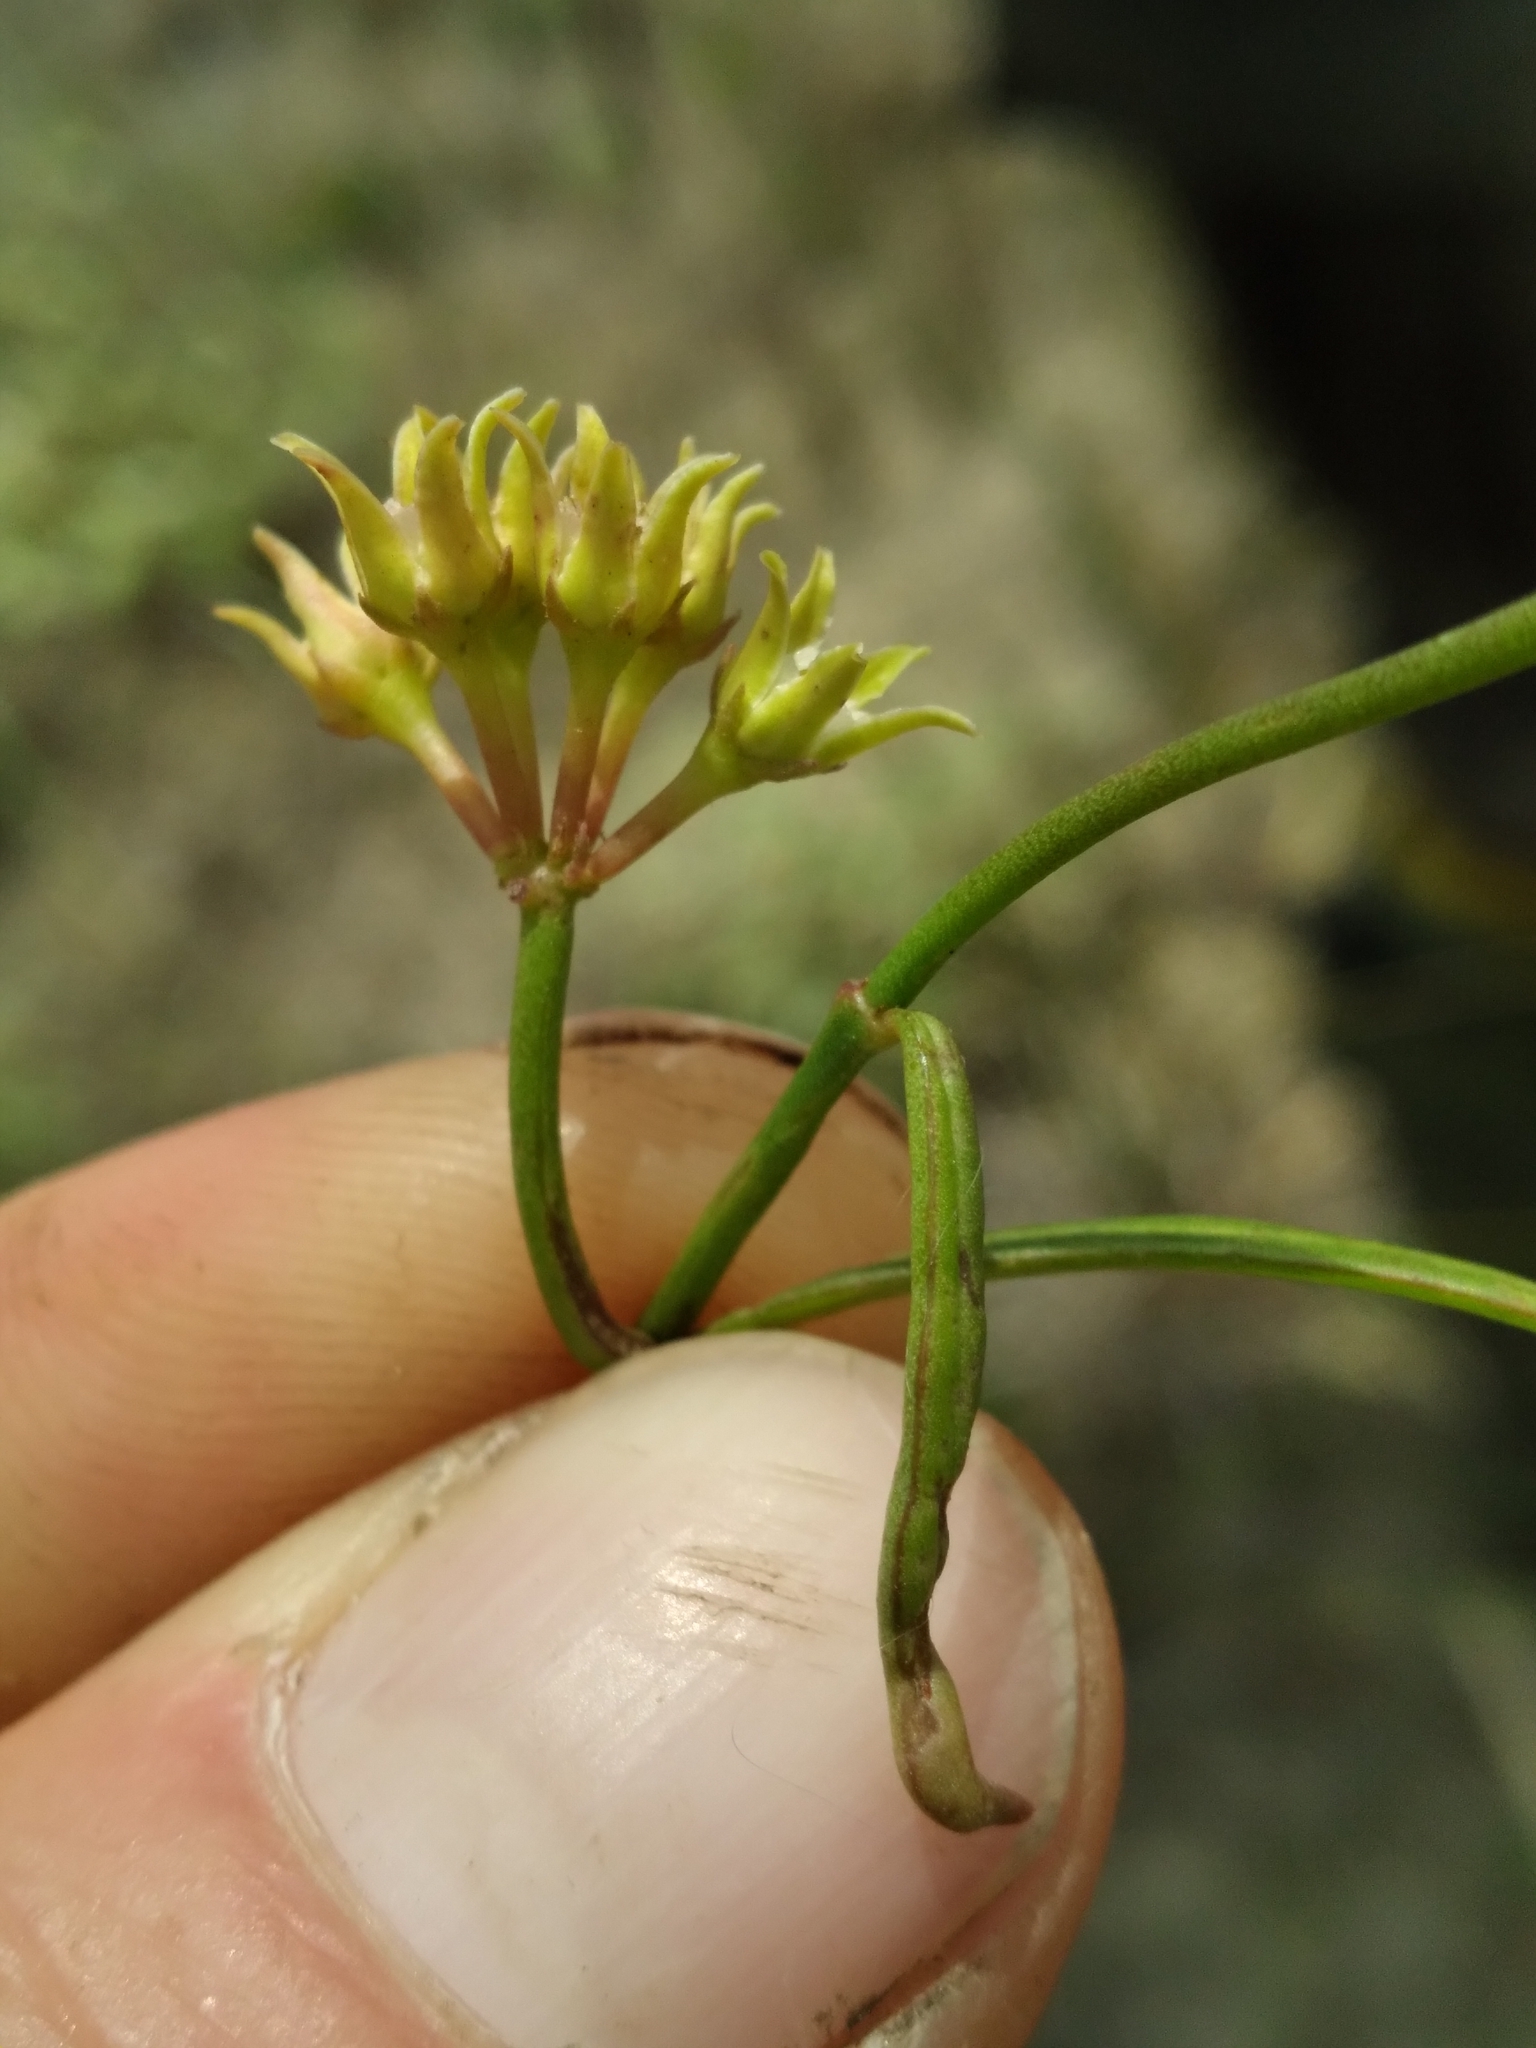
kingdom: Plantae
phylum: Tracheophyta
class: Magnoliopsida
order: Gentianales
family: Apocynaceae
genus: Pattalias
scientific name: Pattalias
